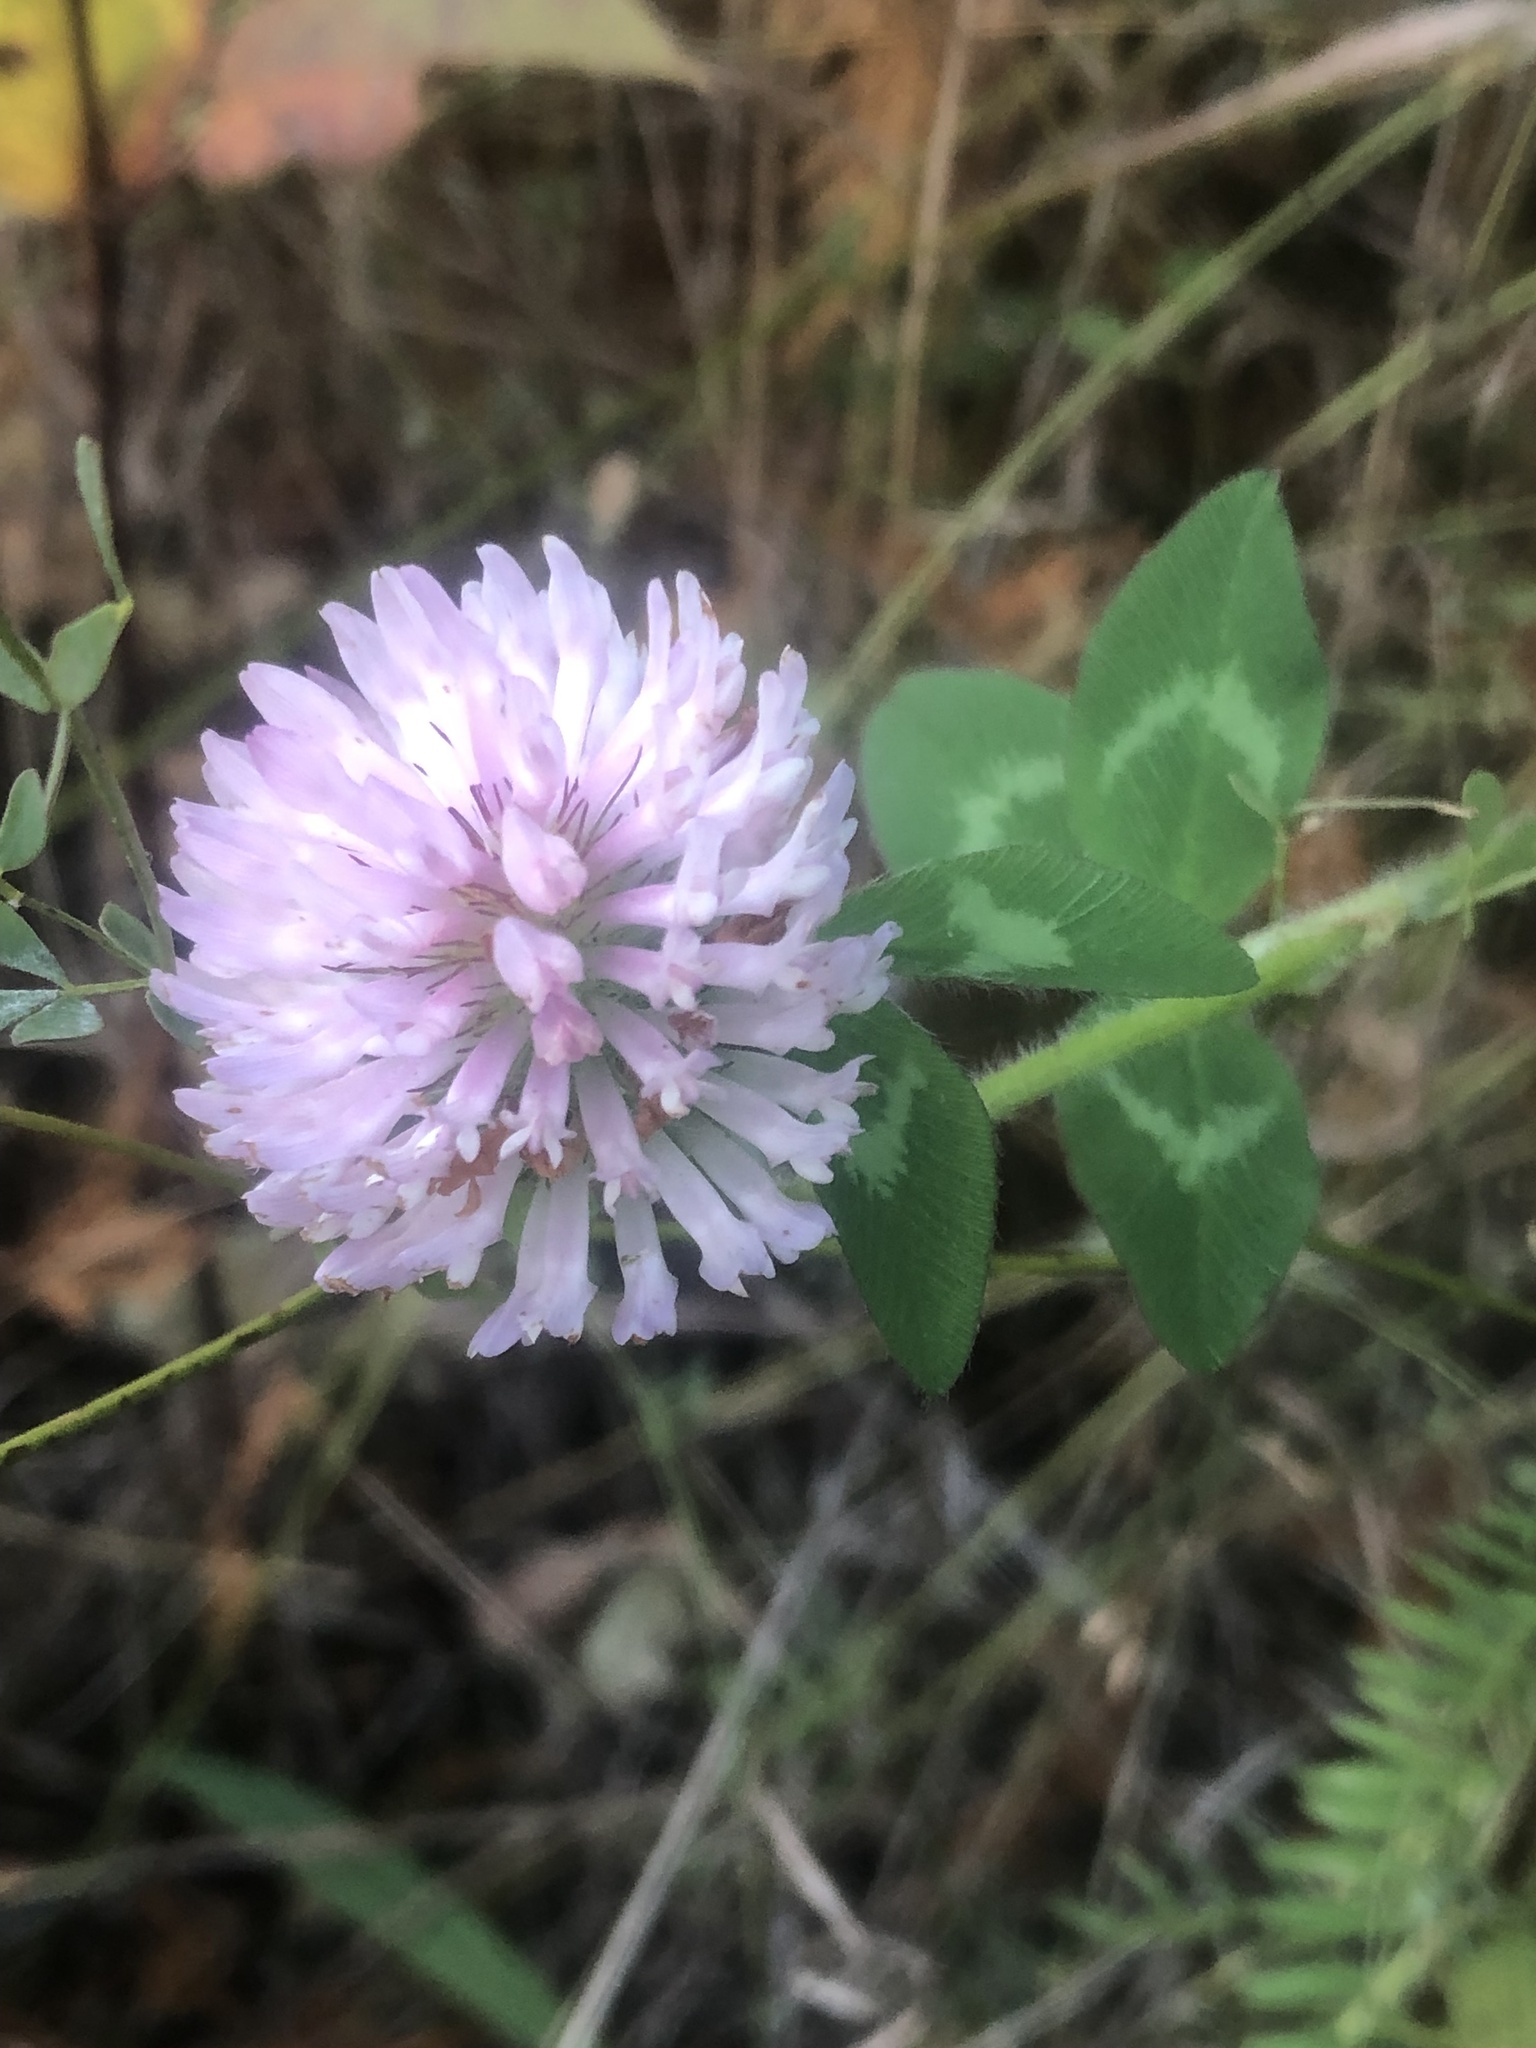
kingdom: Plantae
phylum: Tracheophyta
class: Magnoliopsida
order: Fabales
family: Fabaceae
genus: Trifolium
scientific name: Trifolium pratense
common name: Red clover
